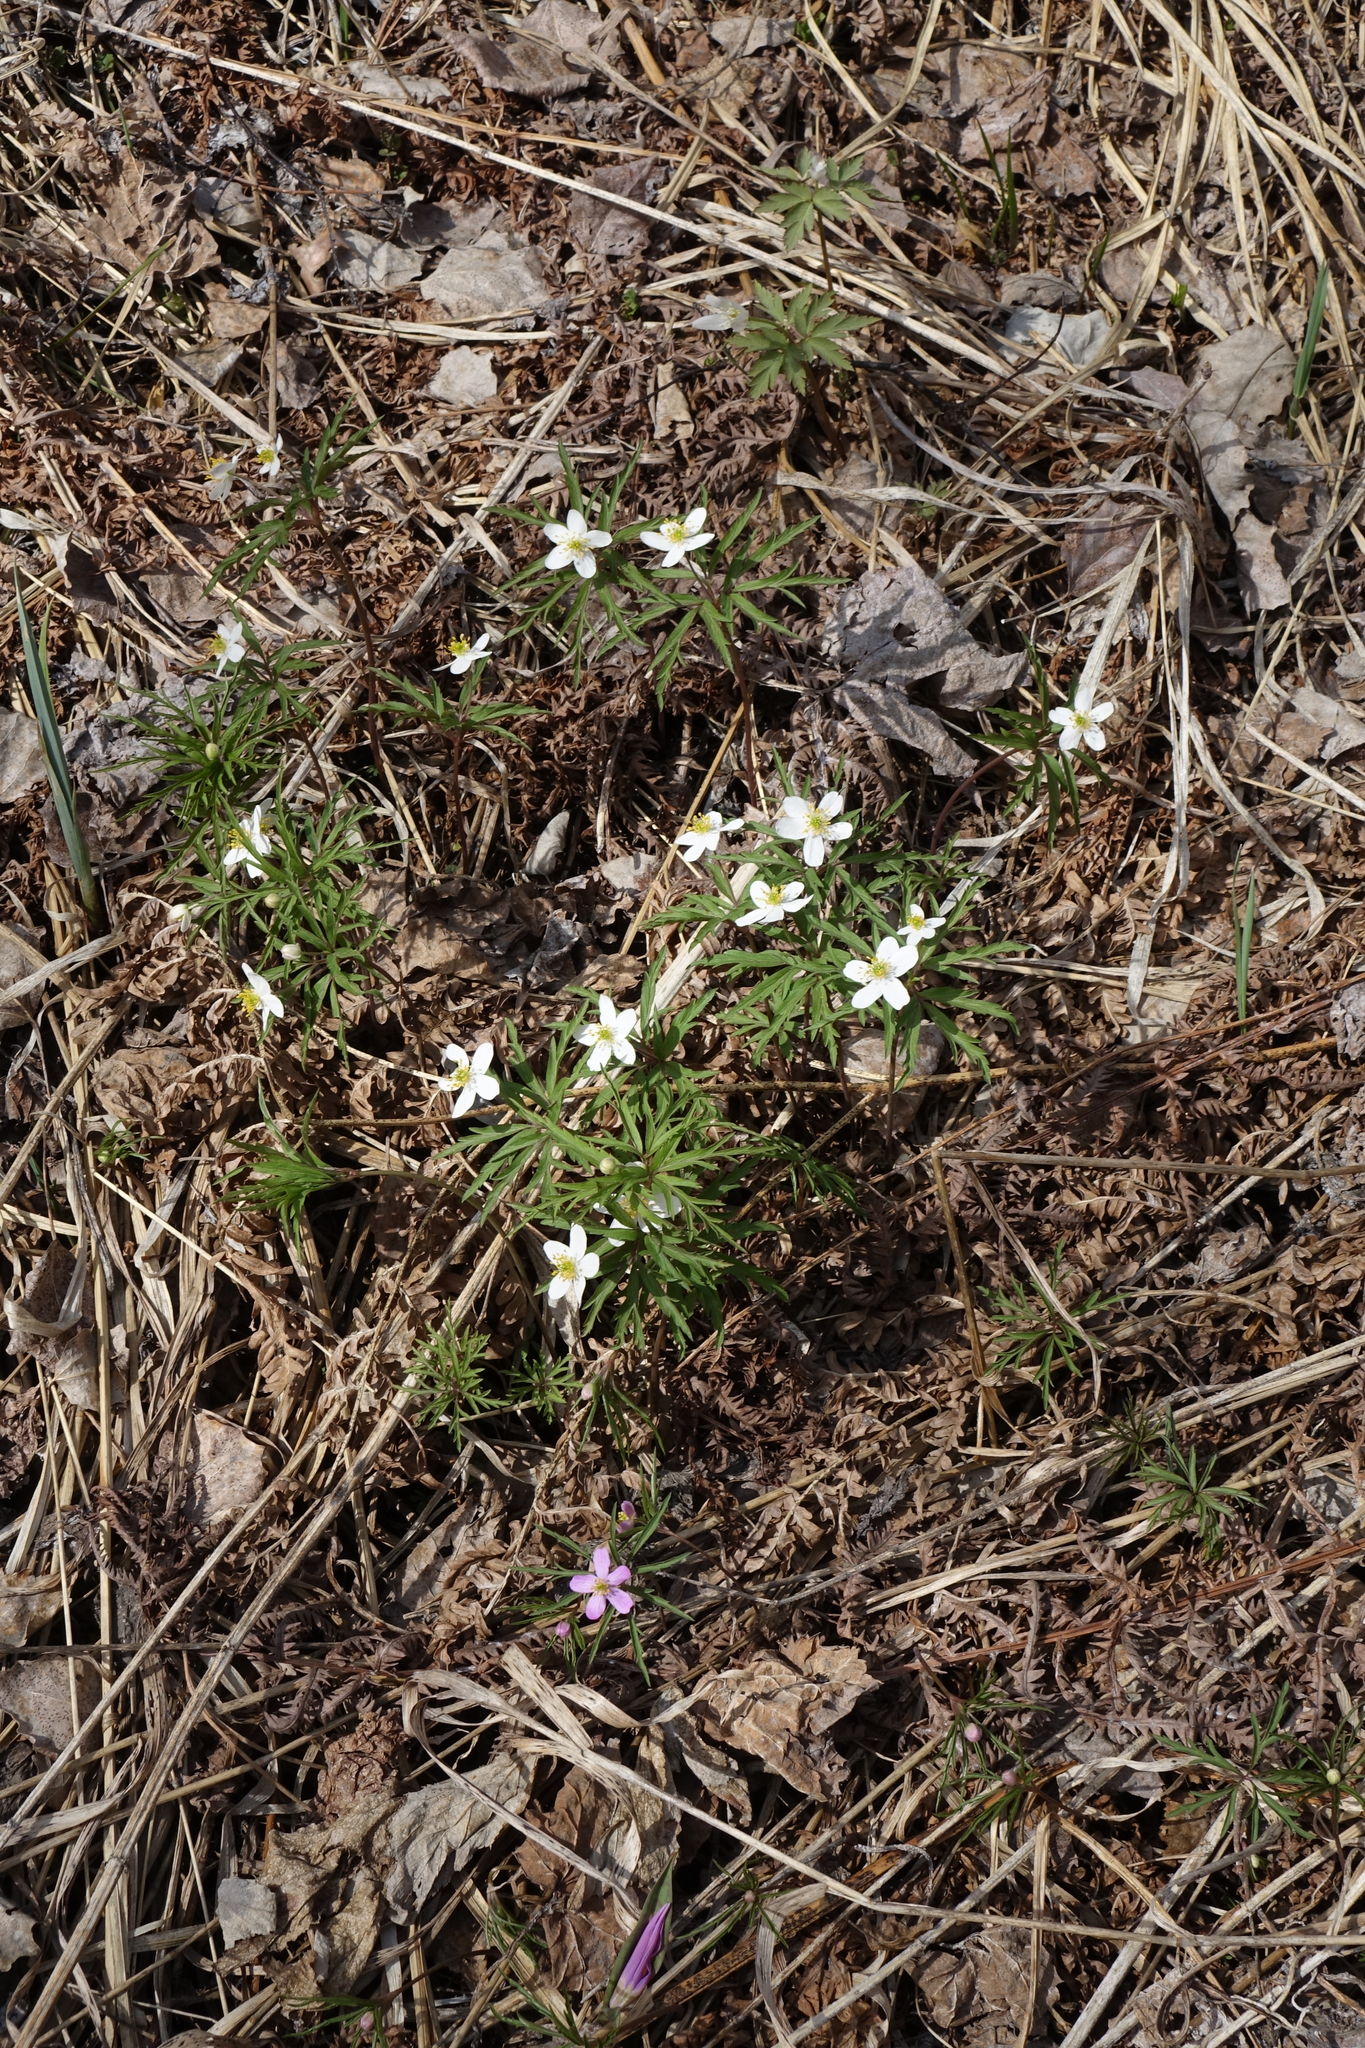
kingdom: Plantae
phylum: Tracheophyta
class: Magnoliopsida
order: Ranunculales
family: Ranunculaceae
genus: Anemone
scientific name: Anemone caerulea
